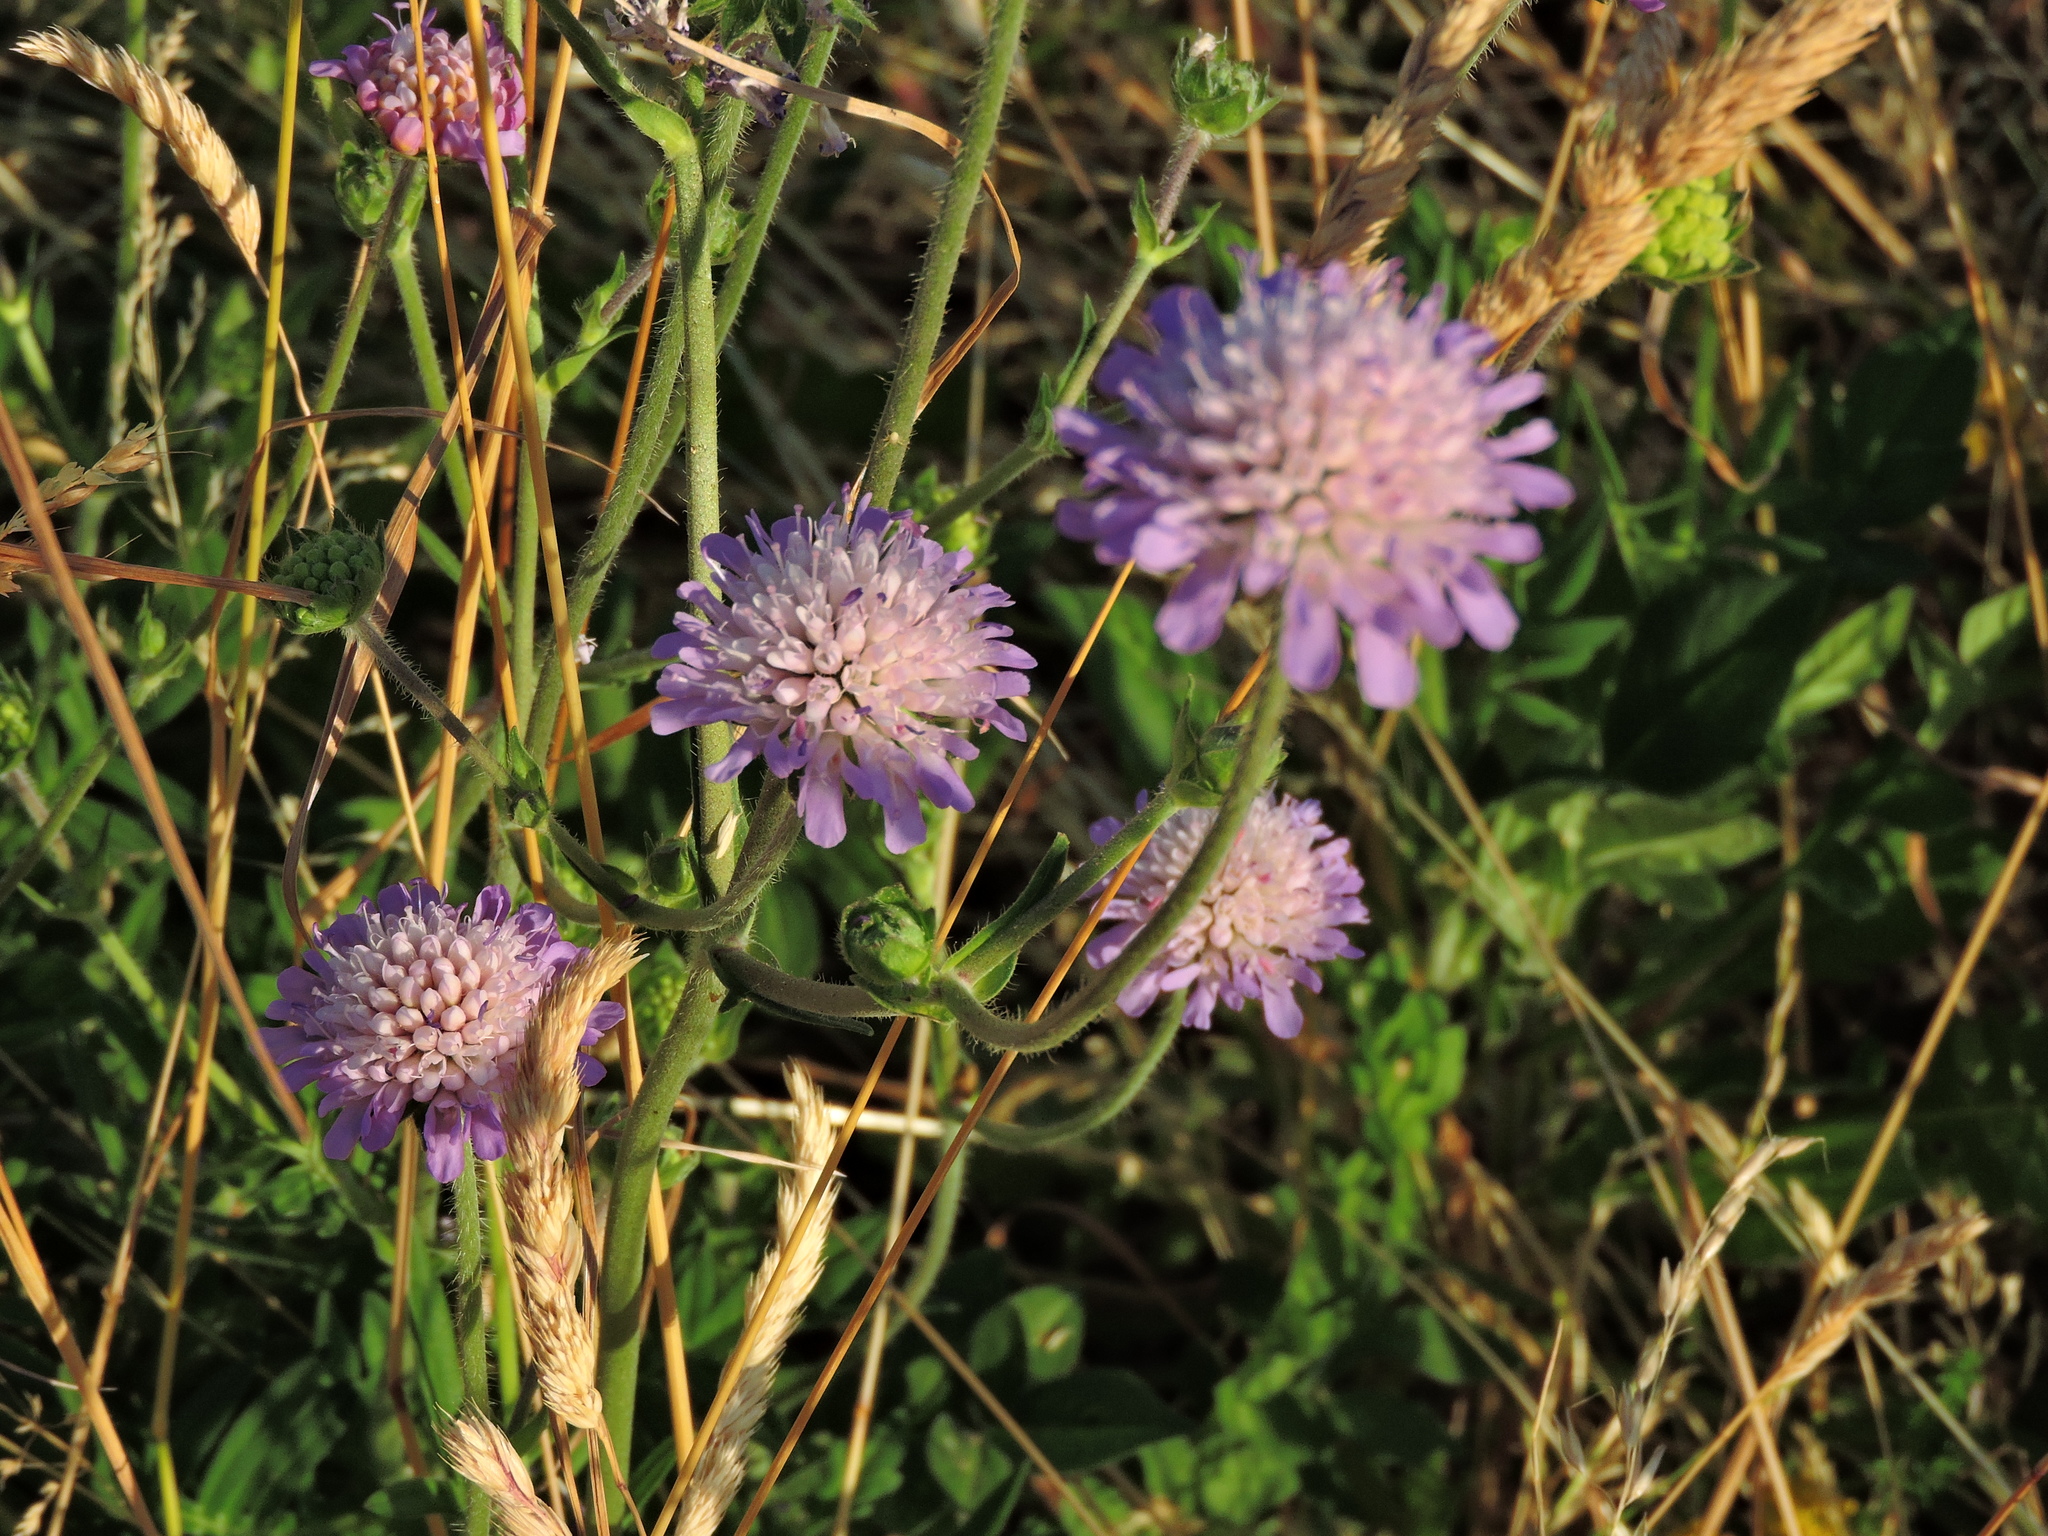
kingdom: Plantae
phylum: Tracheophyta
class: Magnoliopsida
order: Dipsacales
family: Caprifoliaceae
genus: Knautia
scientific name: Knautia arvensis
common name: Field scabiosa
